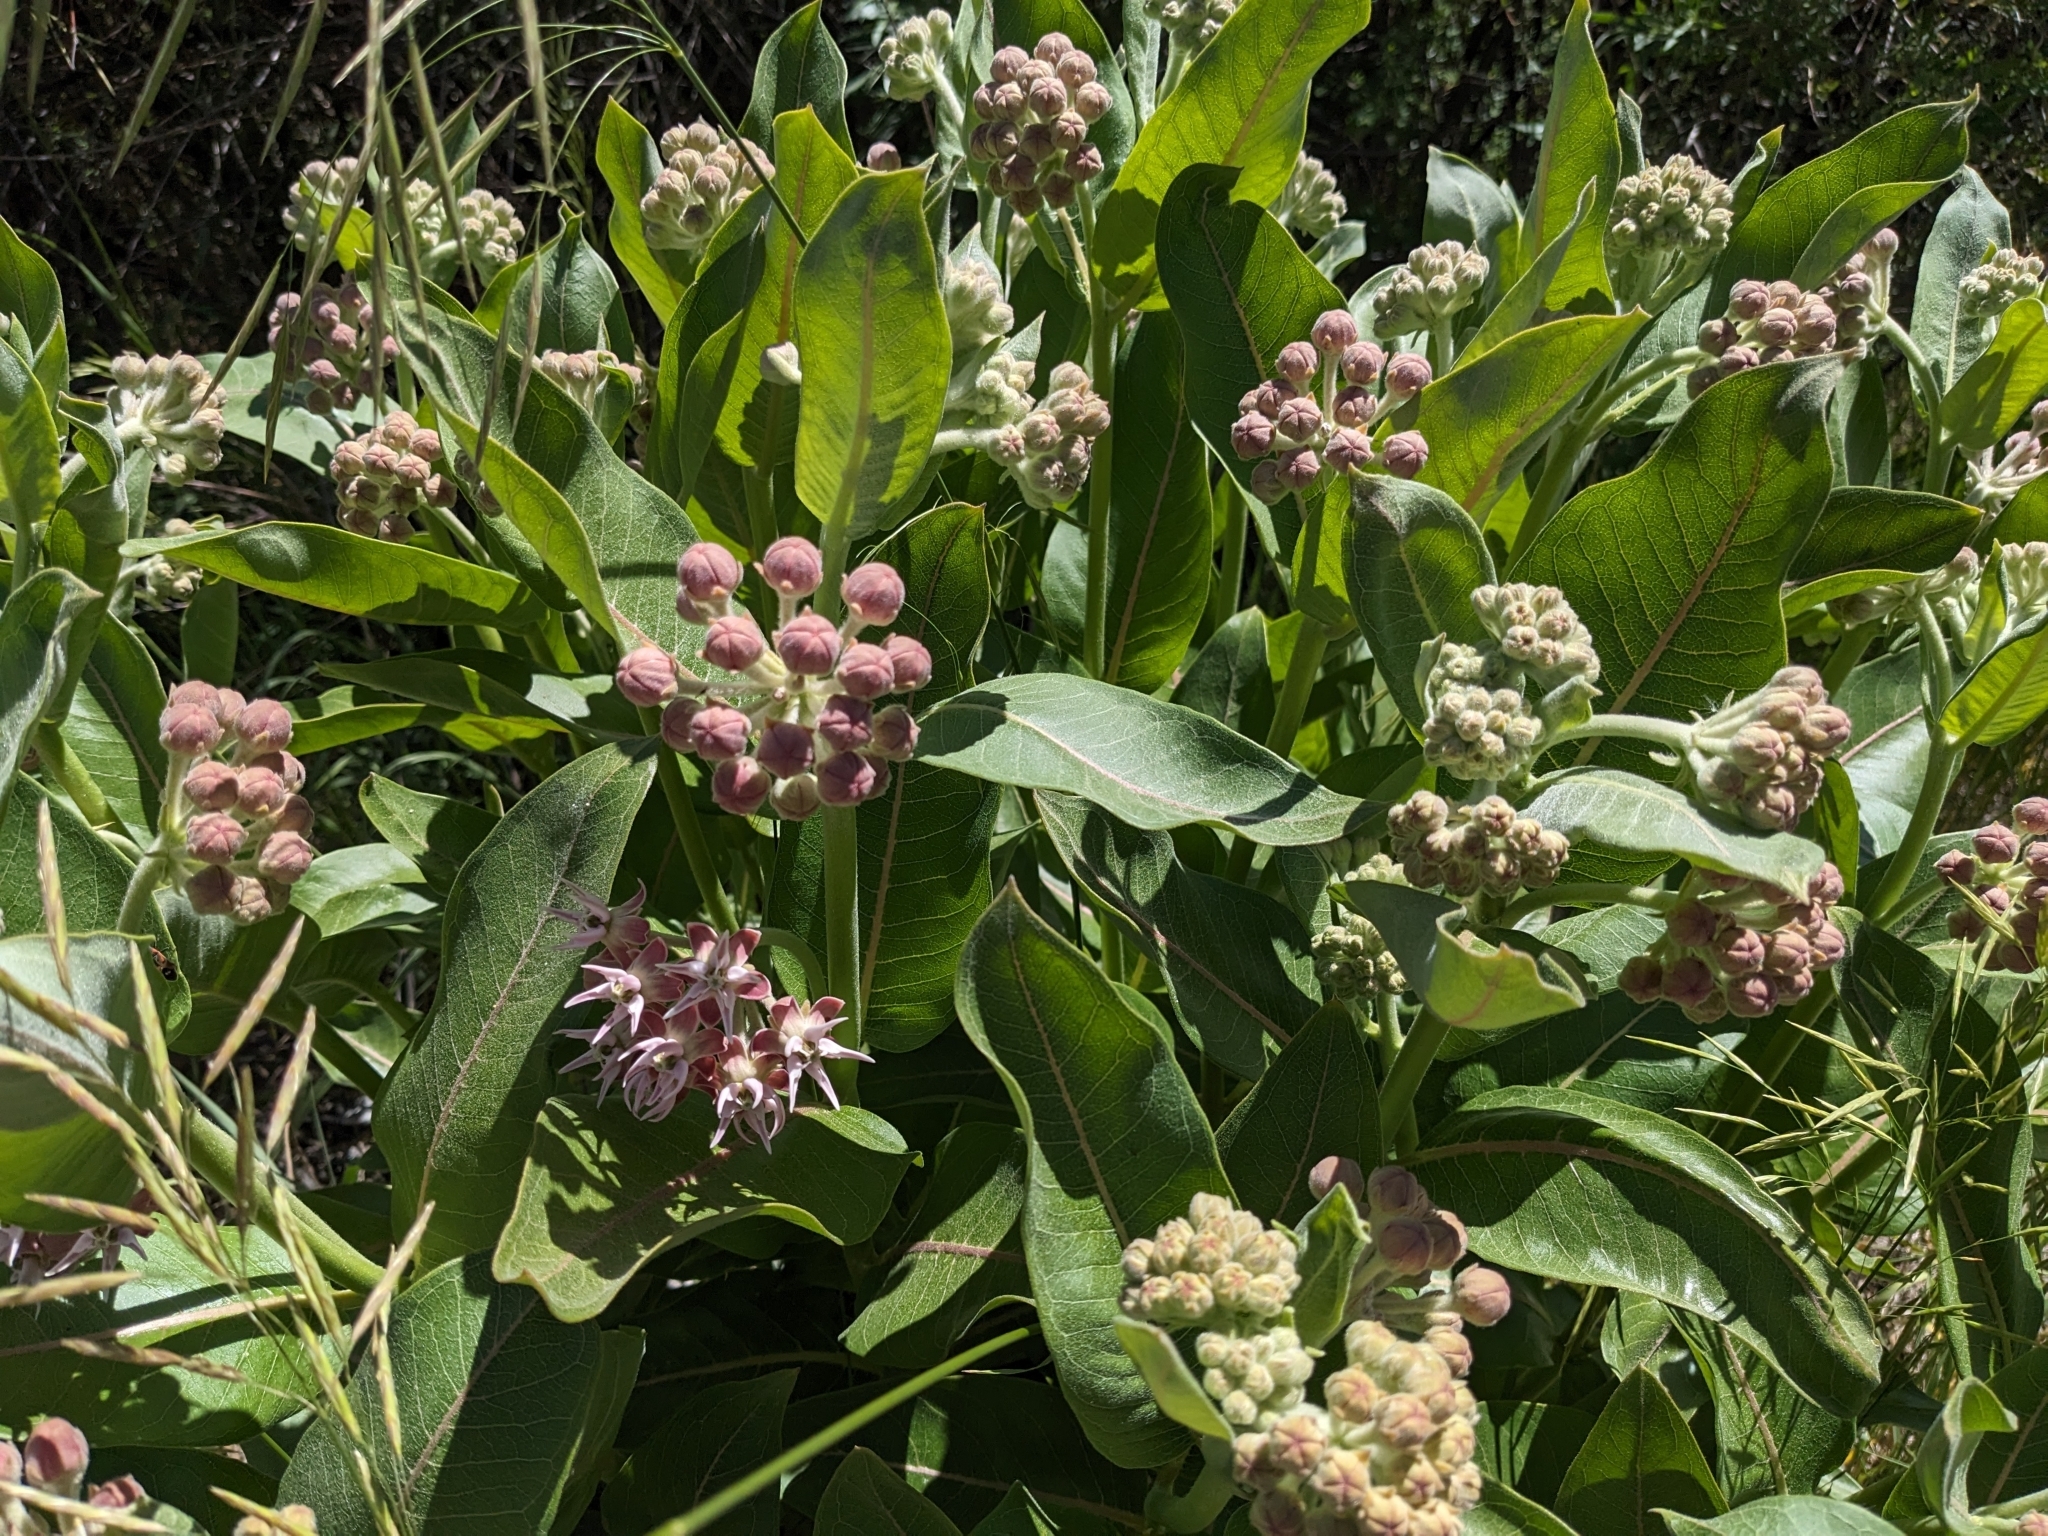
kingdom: Plantae
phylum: Tracheophyta
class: Magnoliopsida
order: Gentianales
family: Apocynaceae
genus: Asclepias
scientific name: Asclepias speciosa
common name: Showy milkweed
